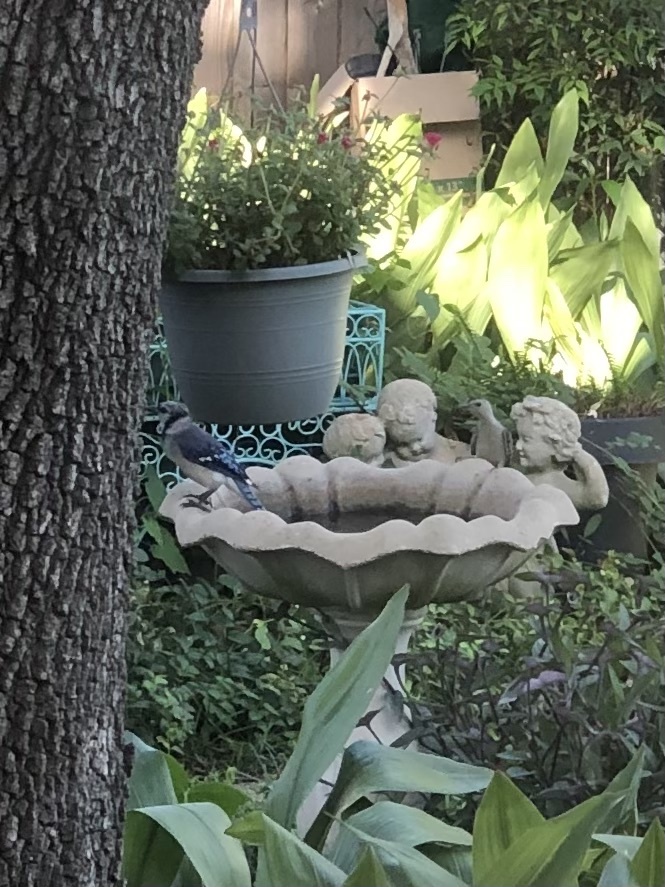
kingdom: Animalia
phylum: Chordata
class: Aves
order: Passeriformes
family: Corvidae
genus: Cyanocitta
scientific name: Cyanocitta cristata
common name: Blue jay
